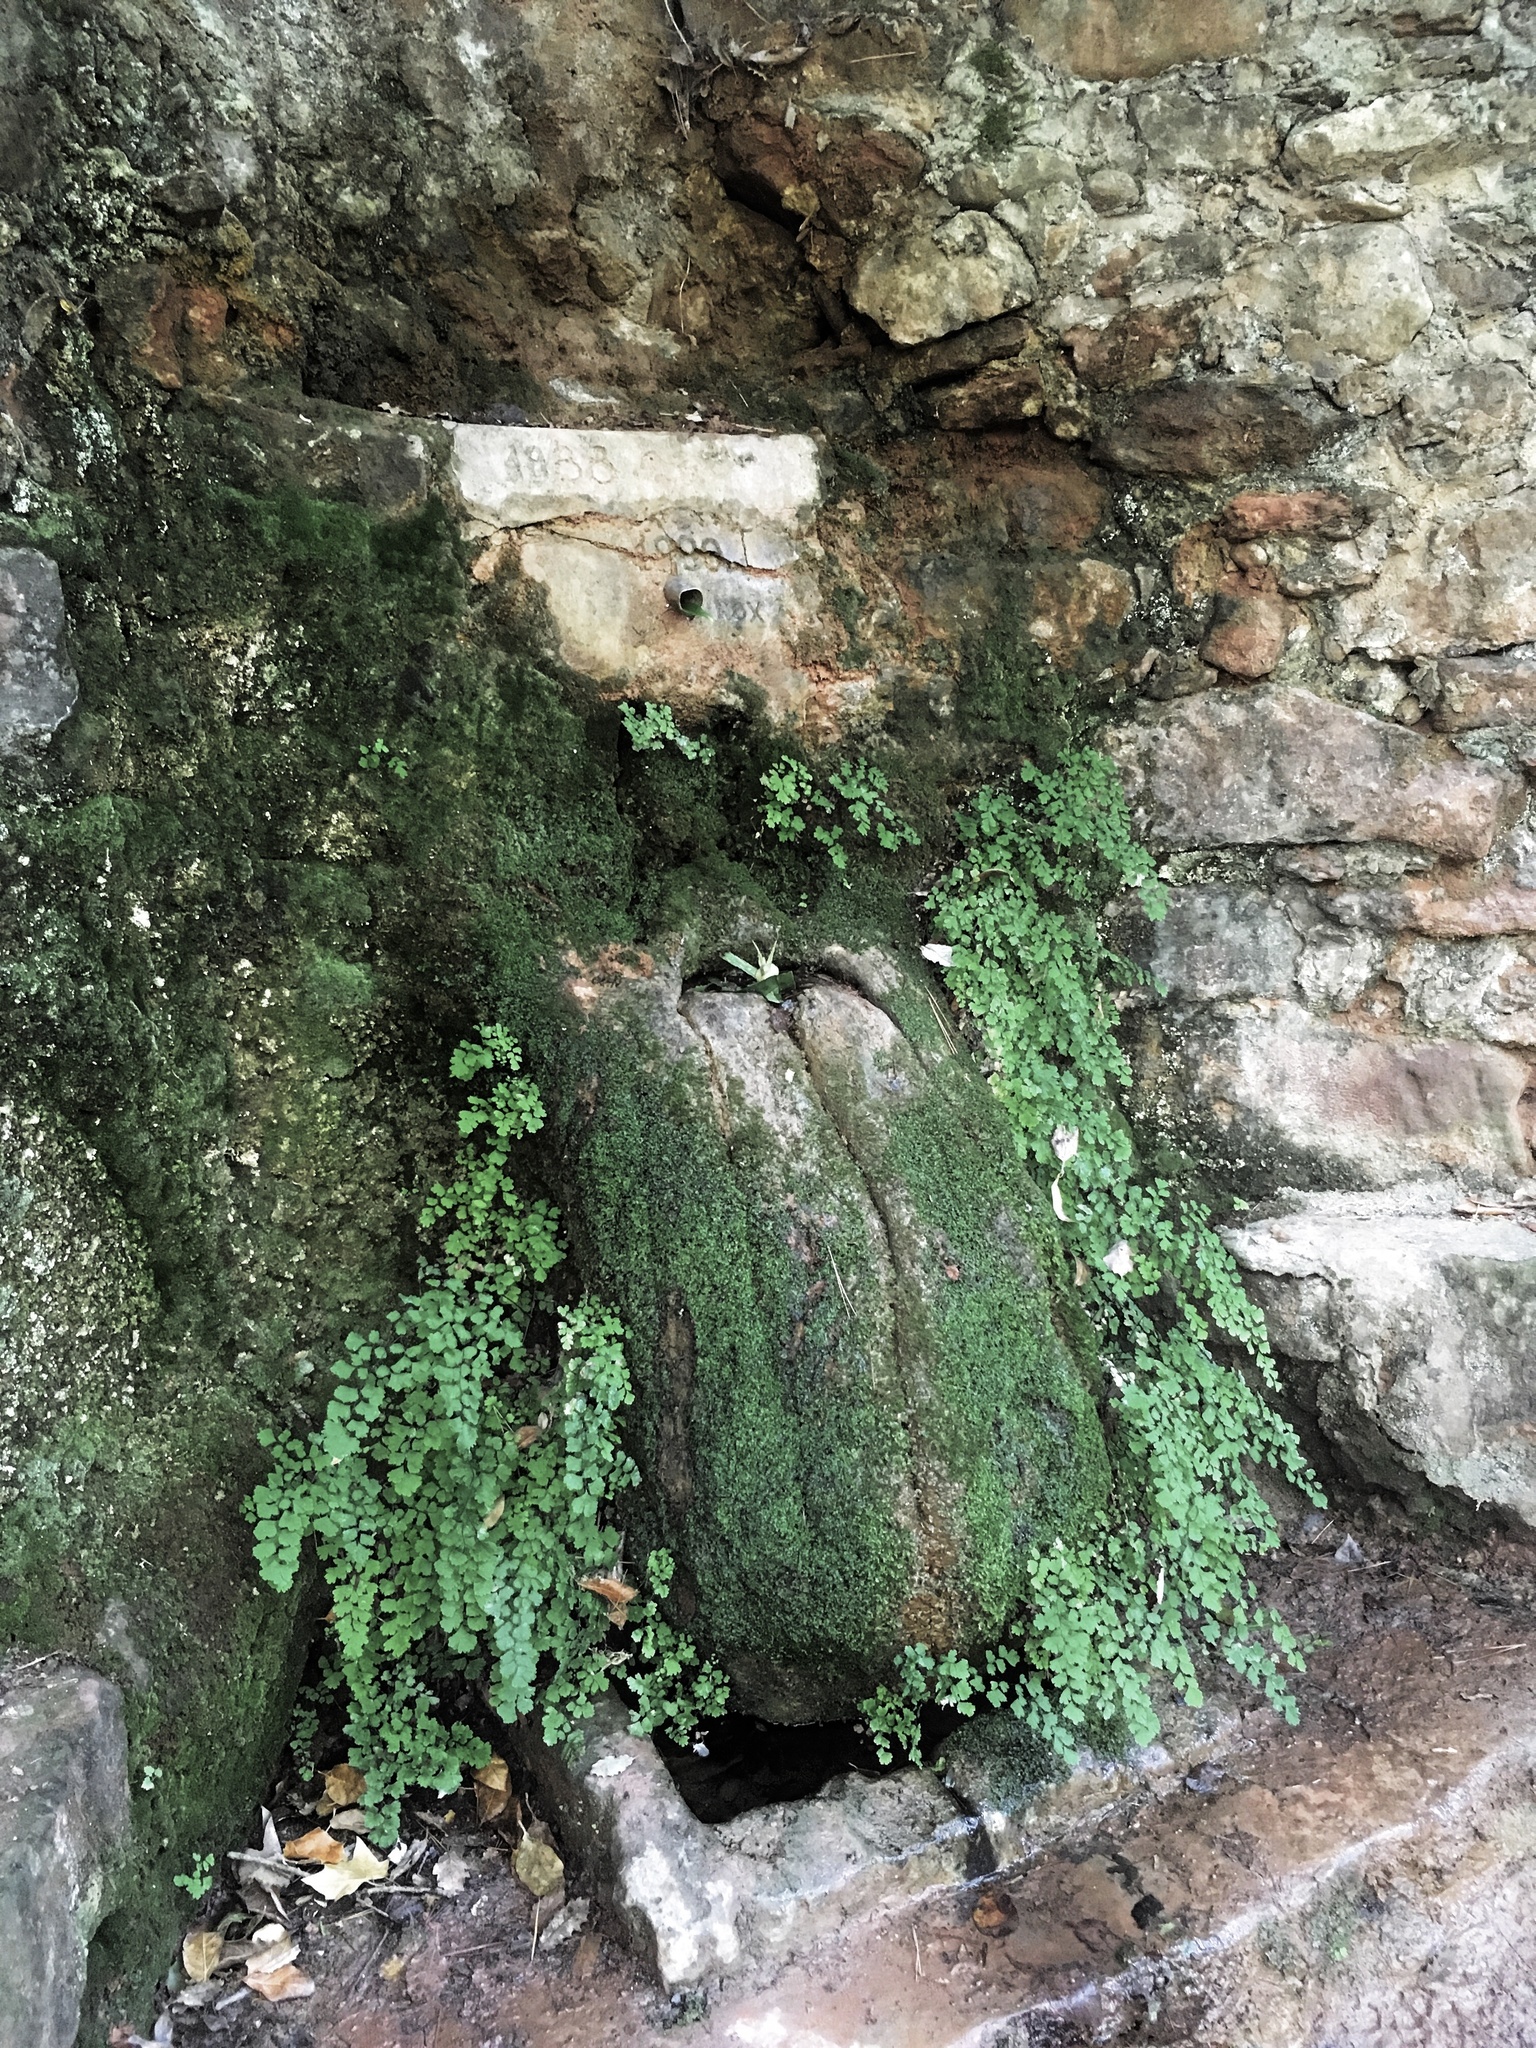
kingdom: Plantae
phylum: Tracheophyta
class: Polypodiopsida
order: Polypodiales
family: Pteridaceae
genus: Adiantum
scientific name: Adiantum capillus-veneris
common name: Maidenhair fern
